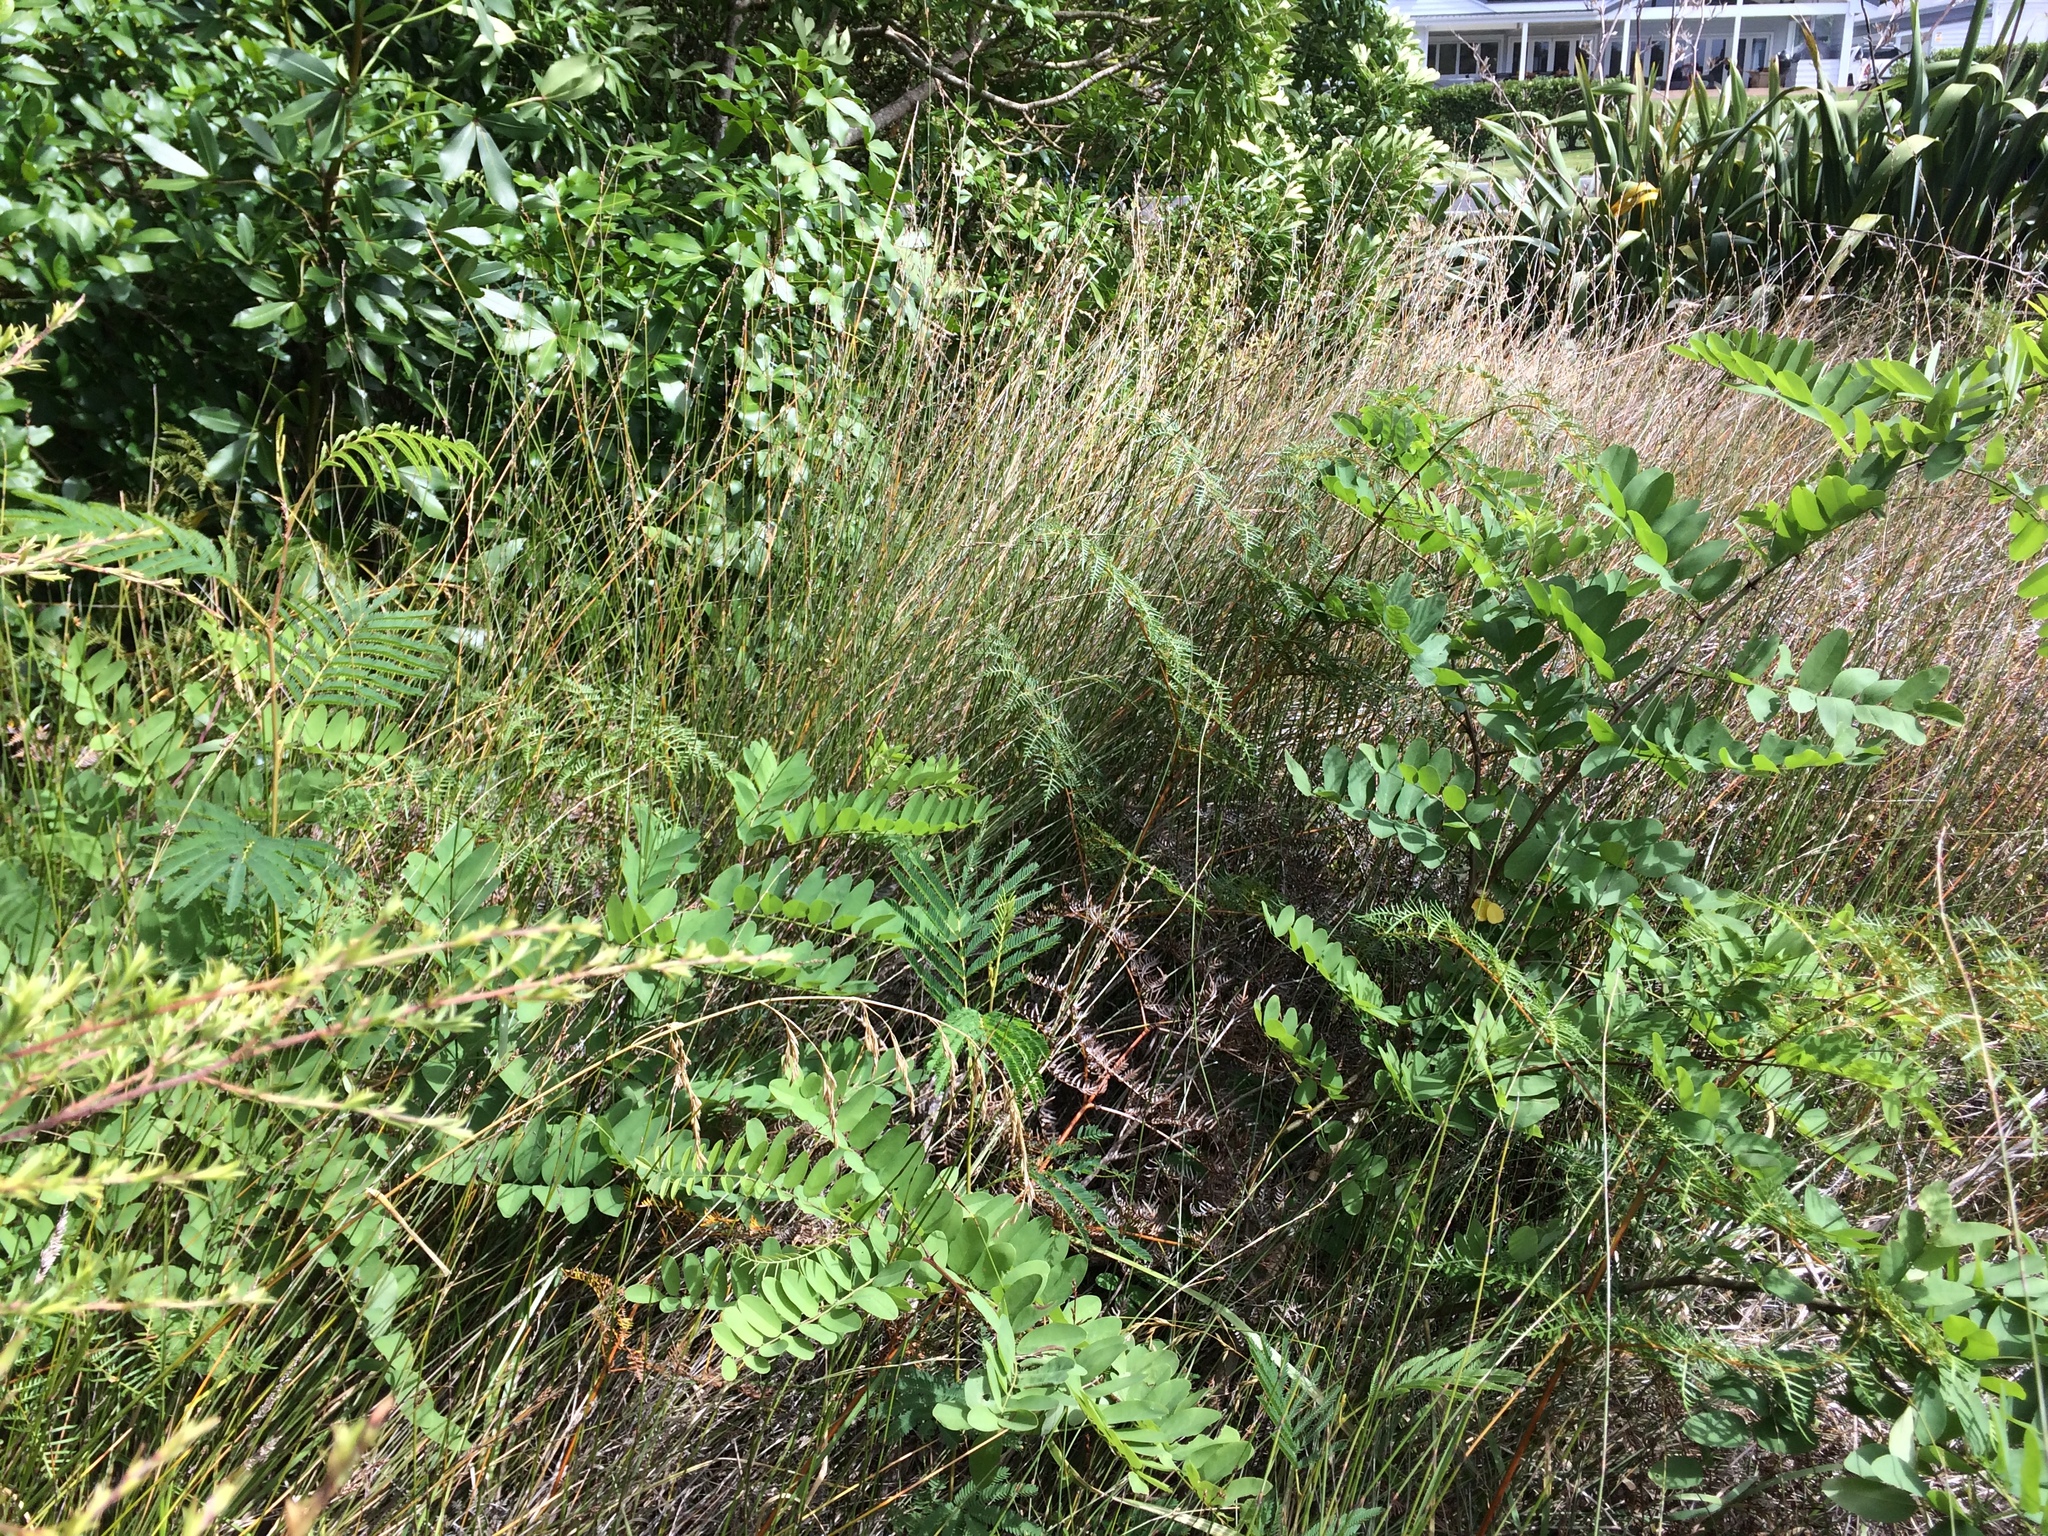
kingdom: Plantae
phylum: Tracheophyta
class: Magnoliopsida
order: Fabales
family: Fabaceae
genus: Robinia
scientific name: Robinia pseudoacacia
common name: Black locust
